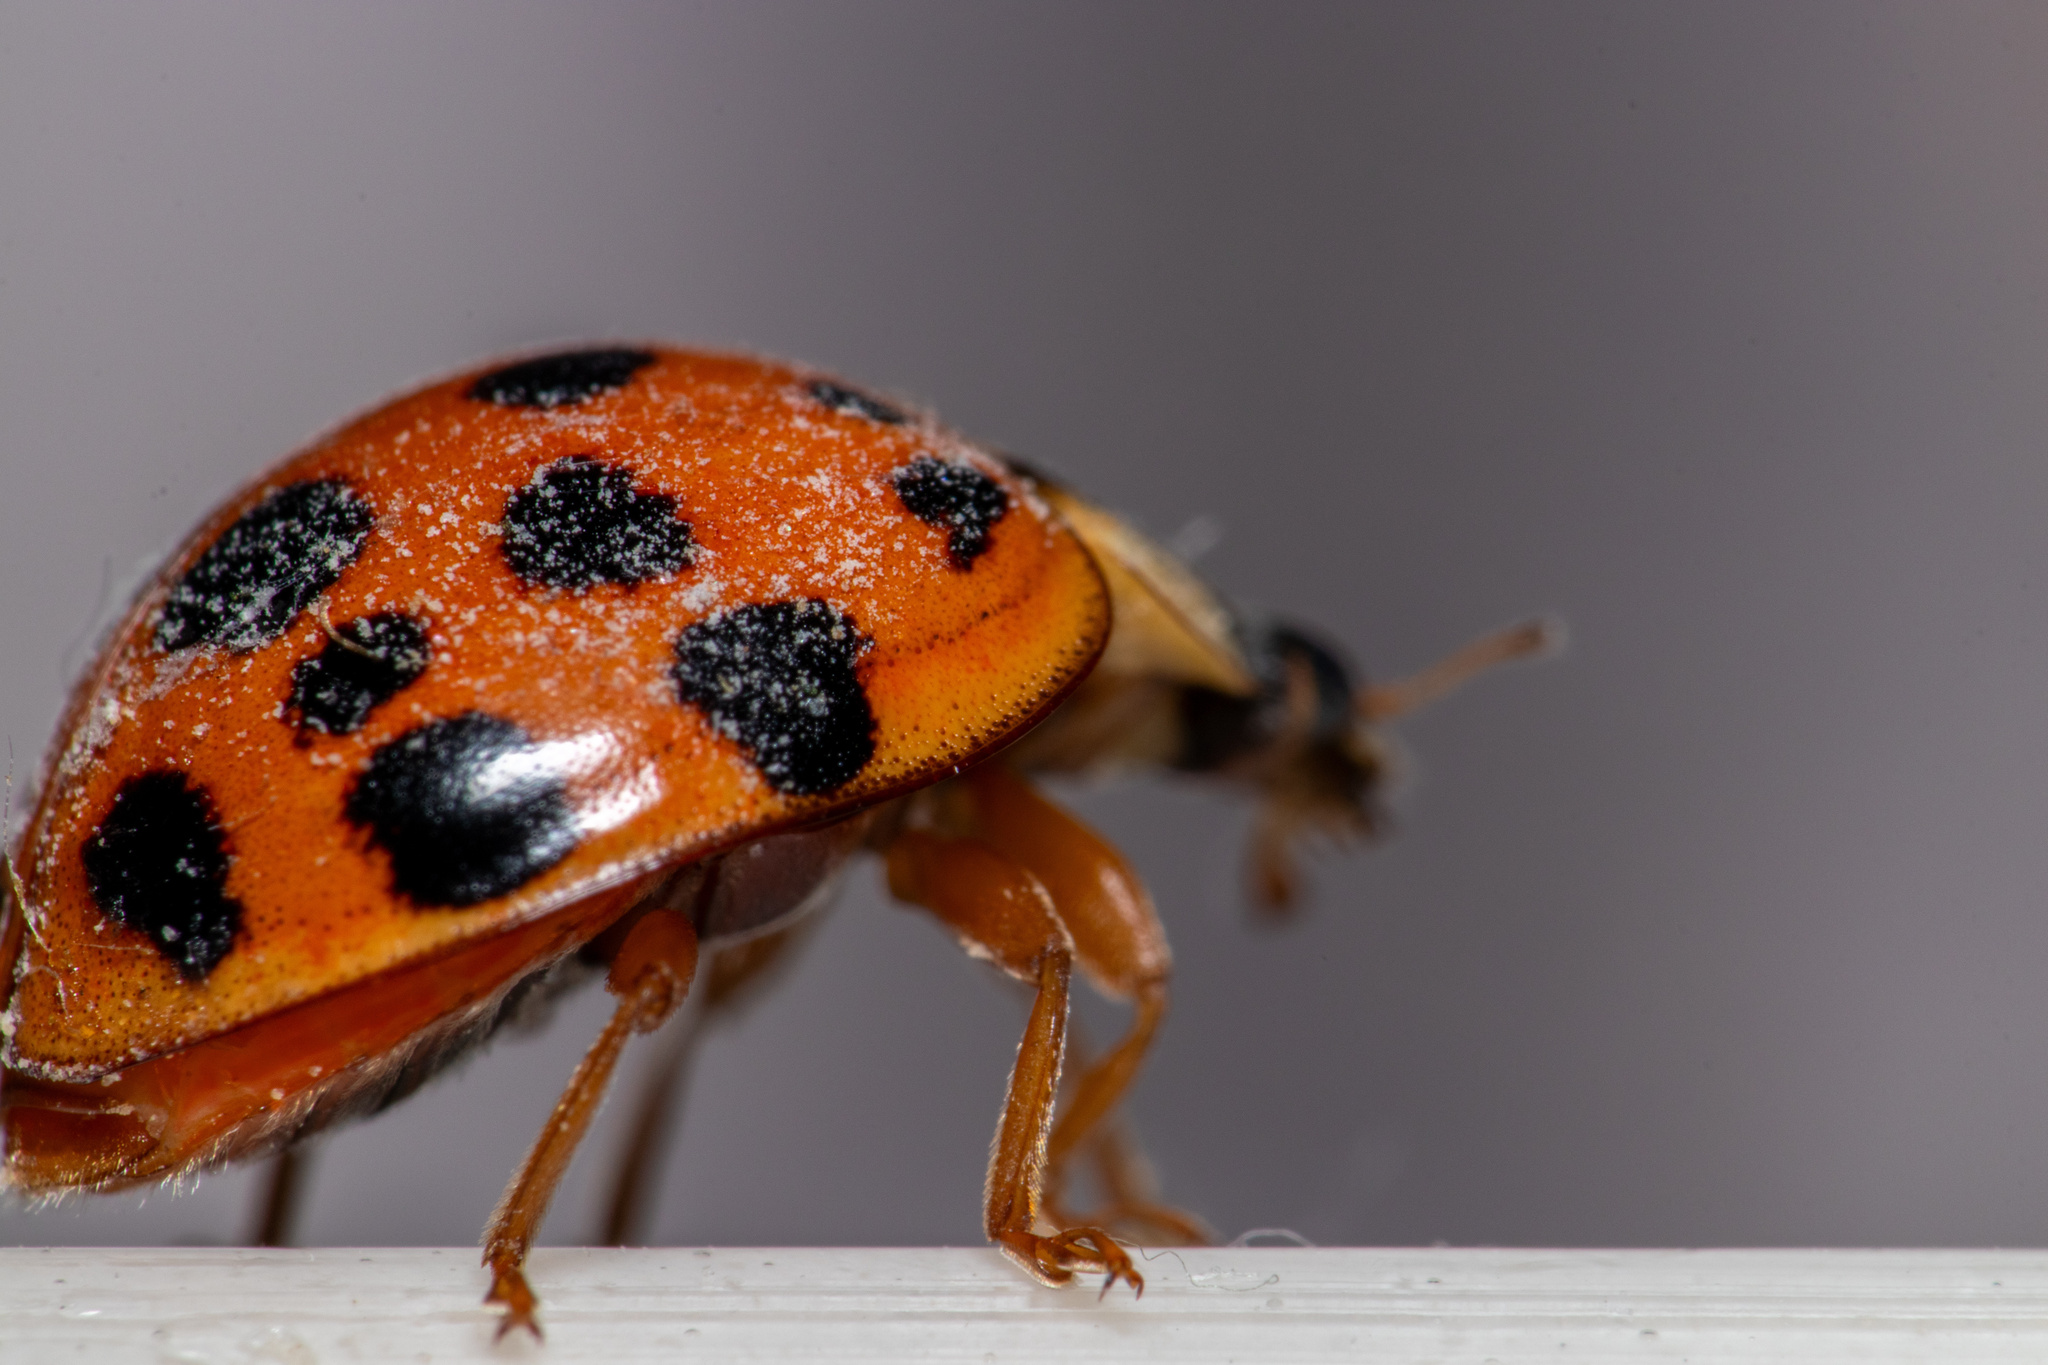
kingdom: Animalia
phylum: Arthropoda
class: Insecta
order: Coleoptera
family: Coccinellidae
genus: Harmonia
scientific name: Harmonia axyridis
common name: Harlequin ladybird
